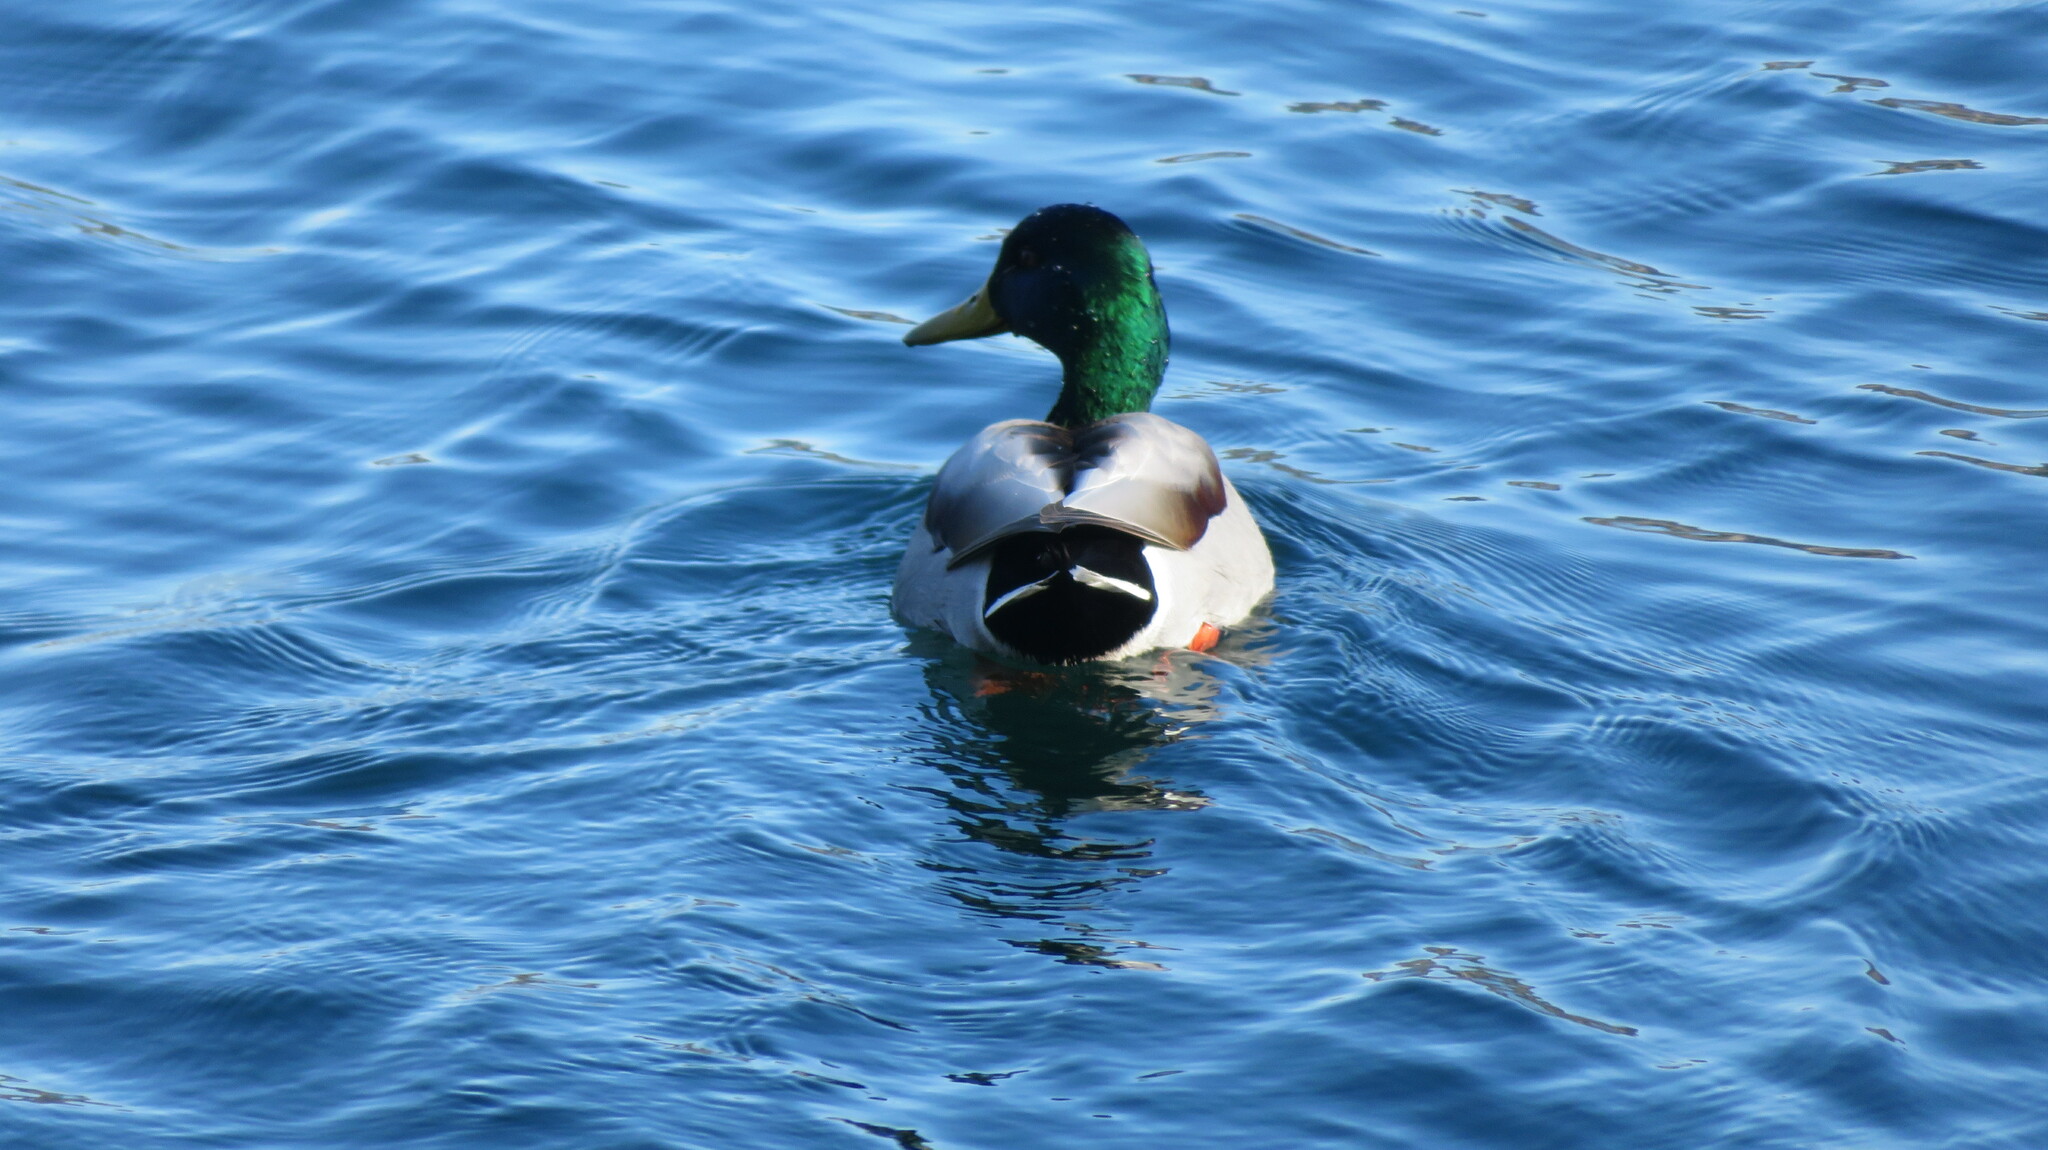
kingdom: Animalia
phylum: Chordata
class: Aves
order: Anseriformes
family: Anatidae
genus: Anas
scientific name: Anas platyrhynchos
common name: Mallard
